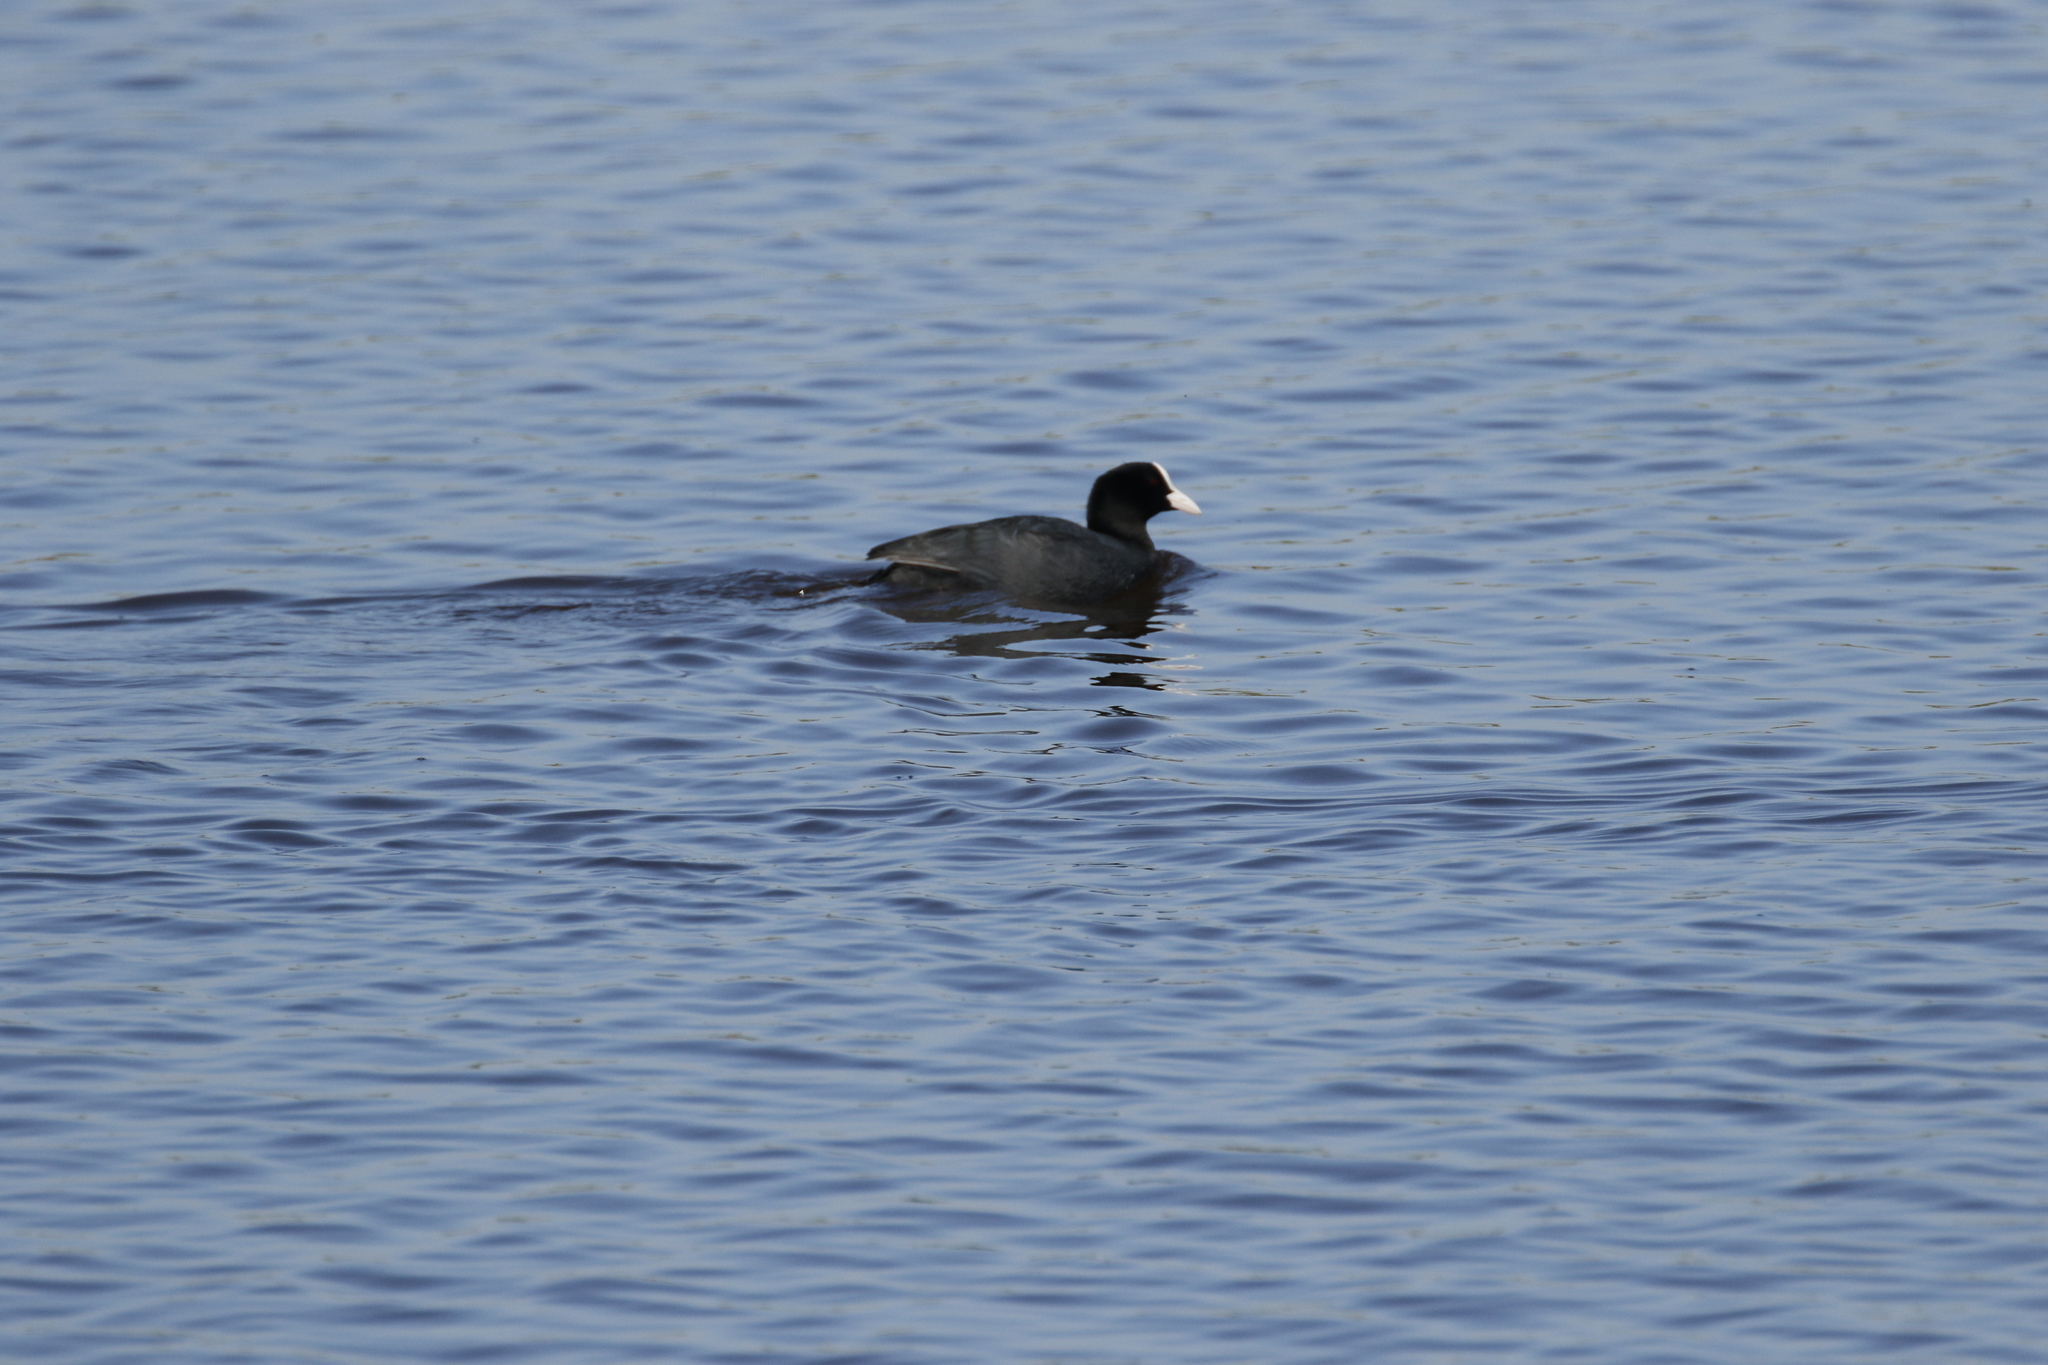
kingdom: Animalia
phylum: Chordata
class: Aves
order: Gruiformes
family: Rallidae
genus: Fulica
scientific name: Fulica atra
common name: Eurasian coot
